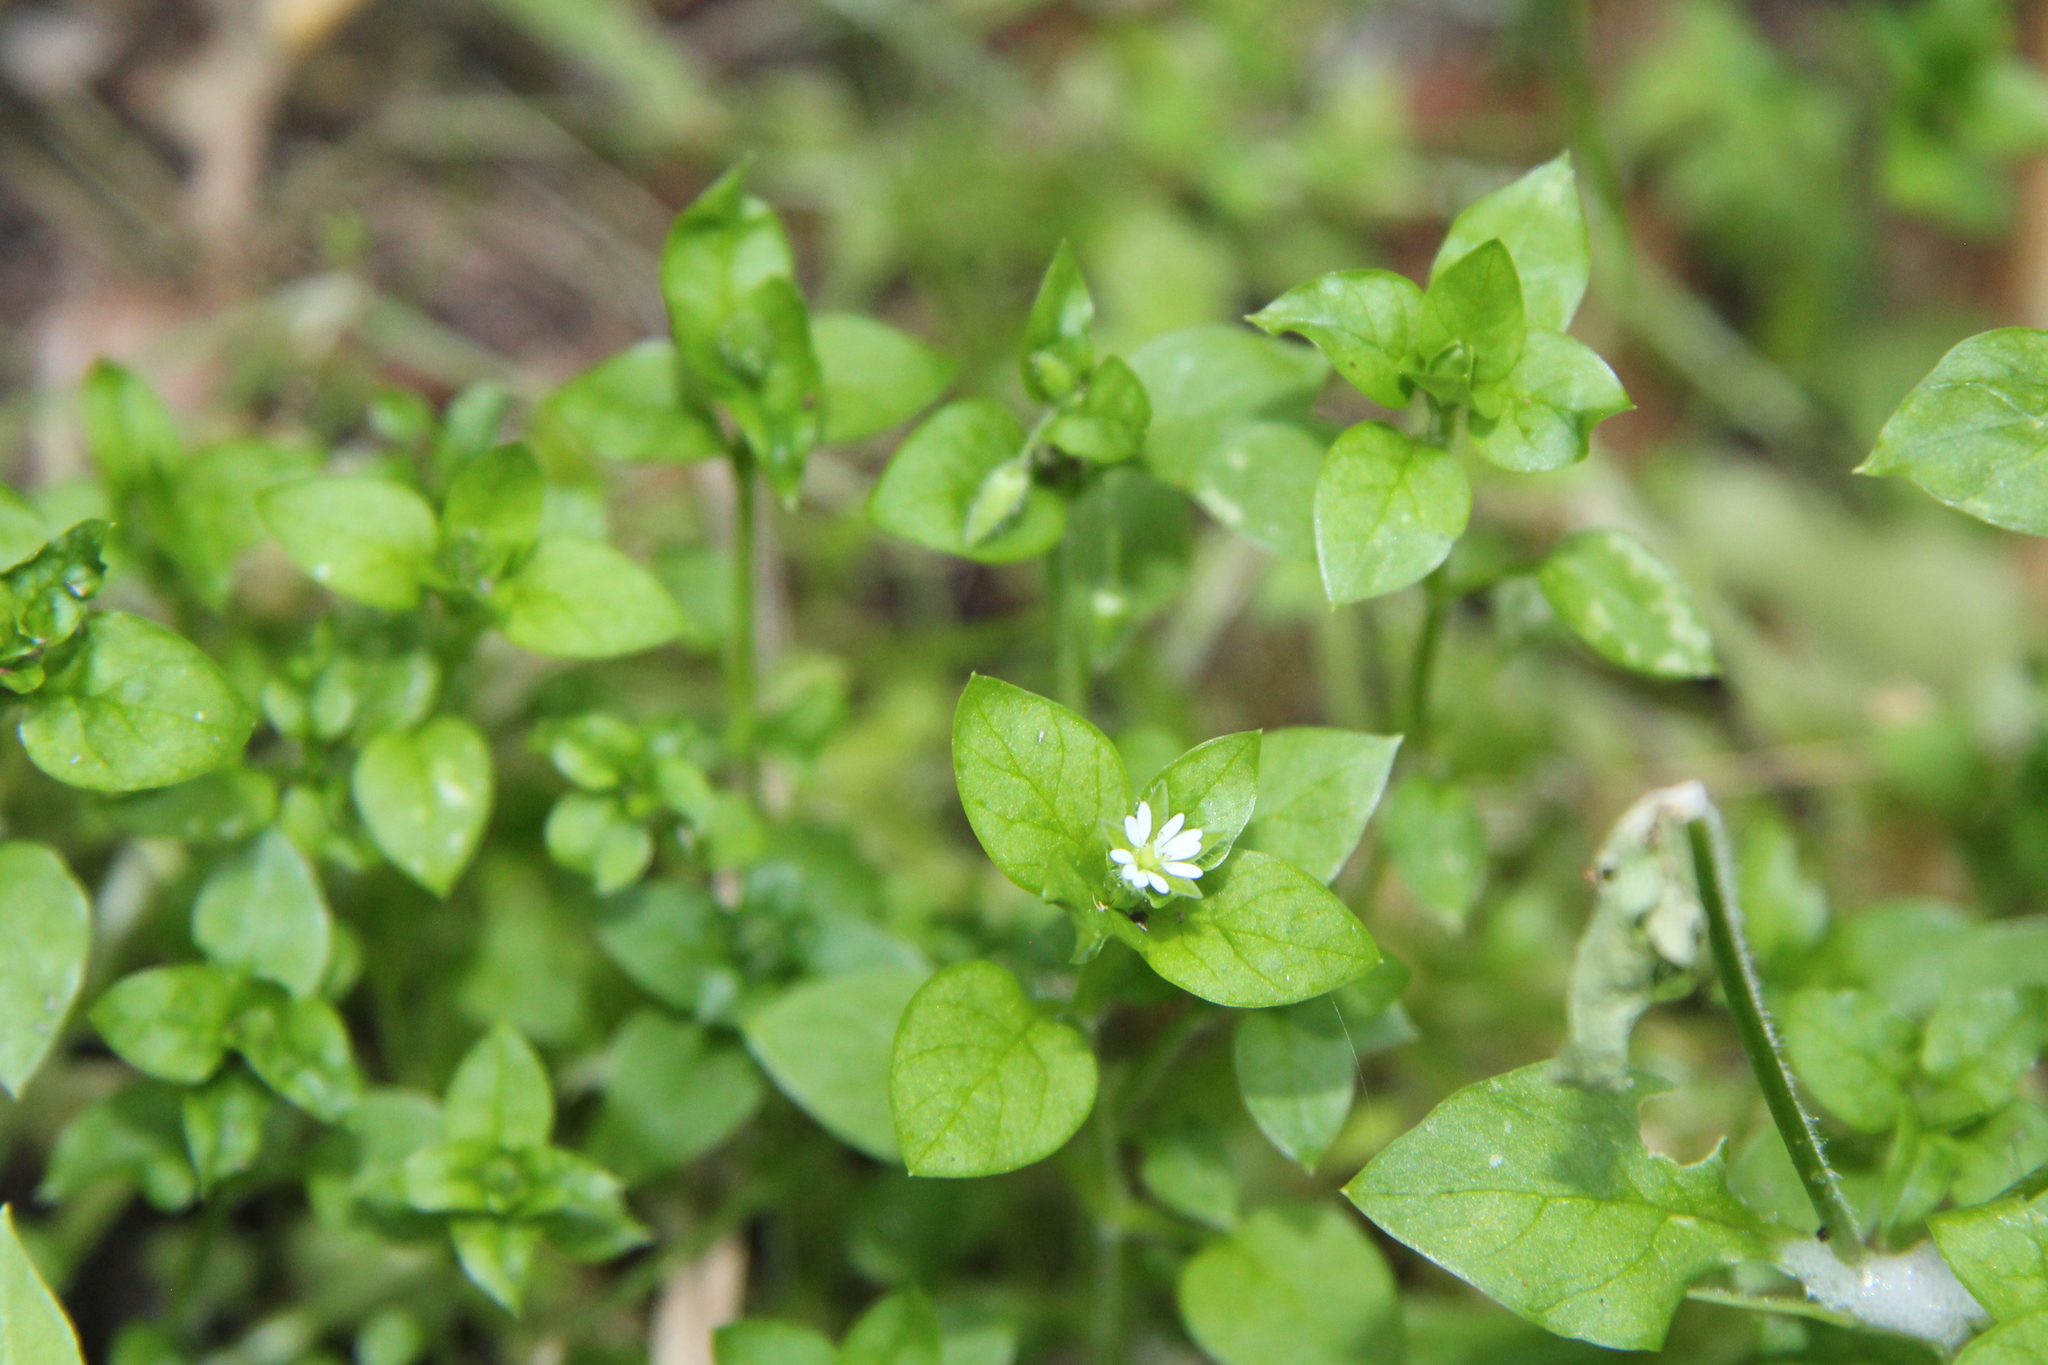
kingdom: Plantae
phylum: Tracheophyta
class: Magnoliopsida
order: Caryophyllales
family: Caryophyllaceae
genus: Stellaria
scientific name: Stellaria media
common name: Common chickweed
